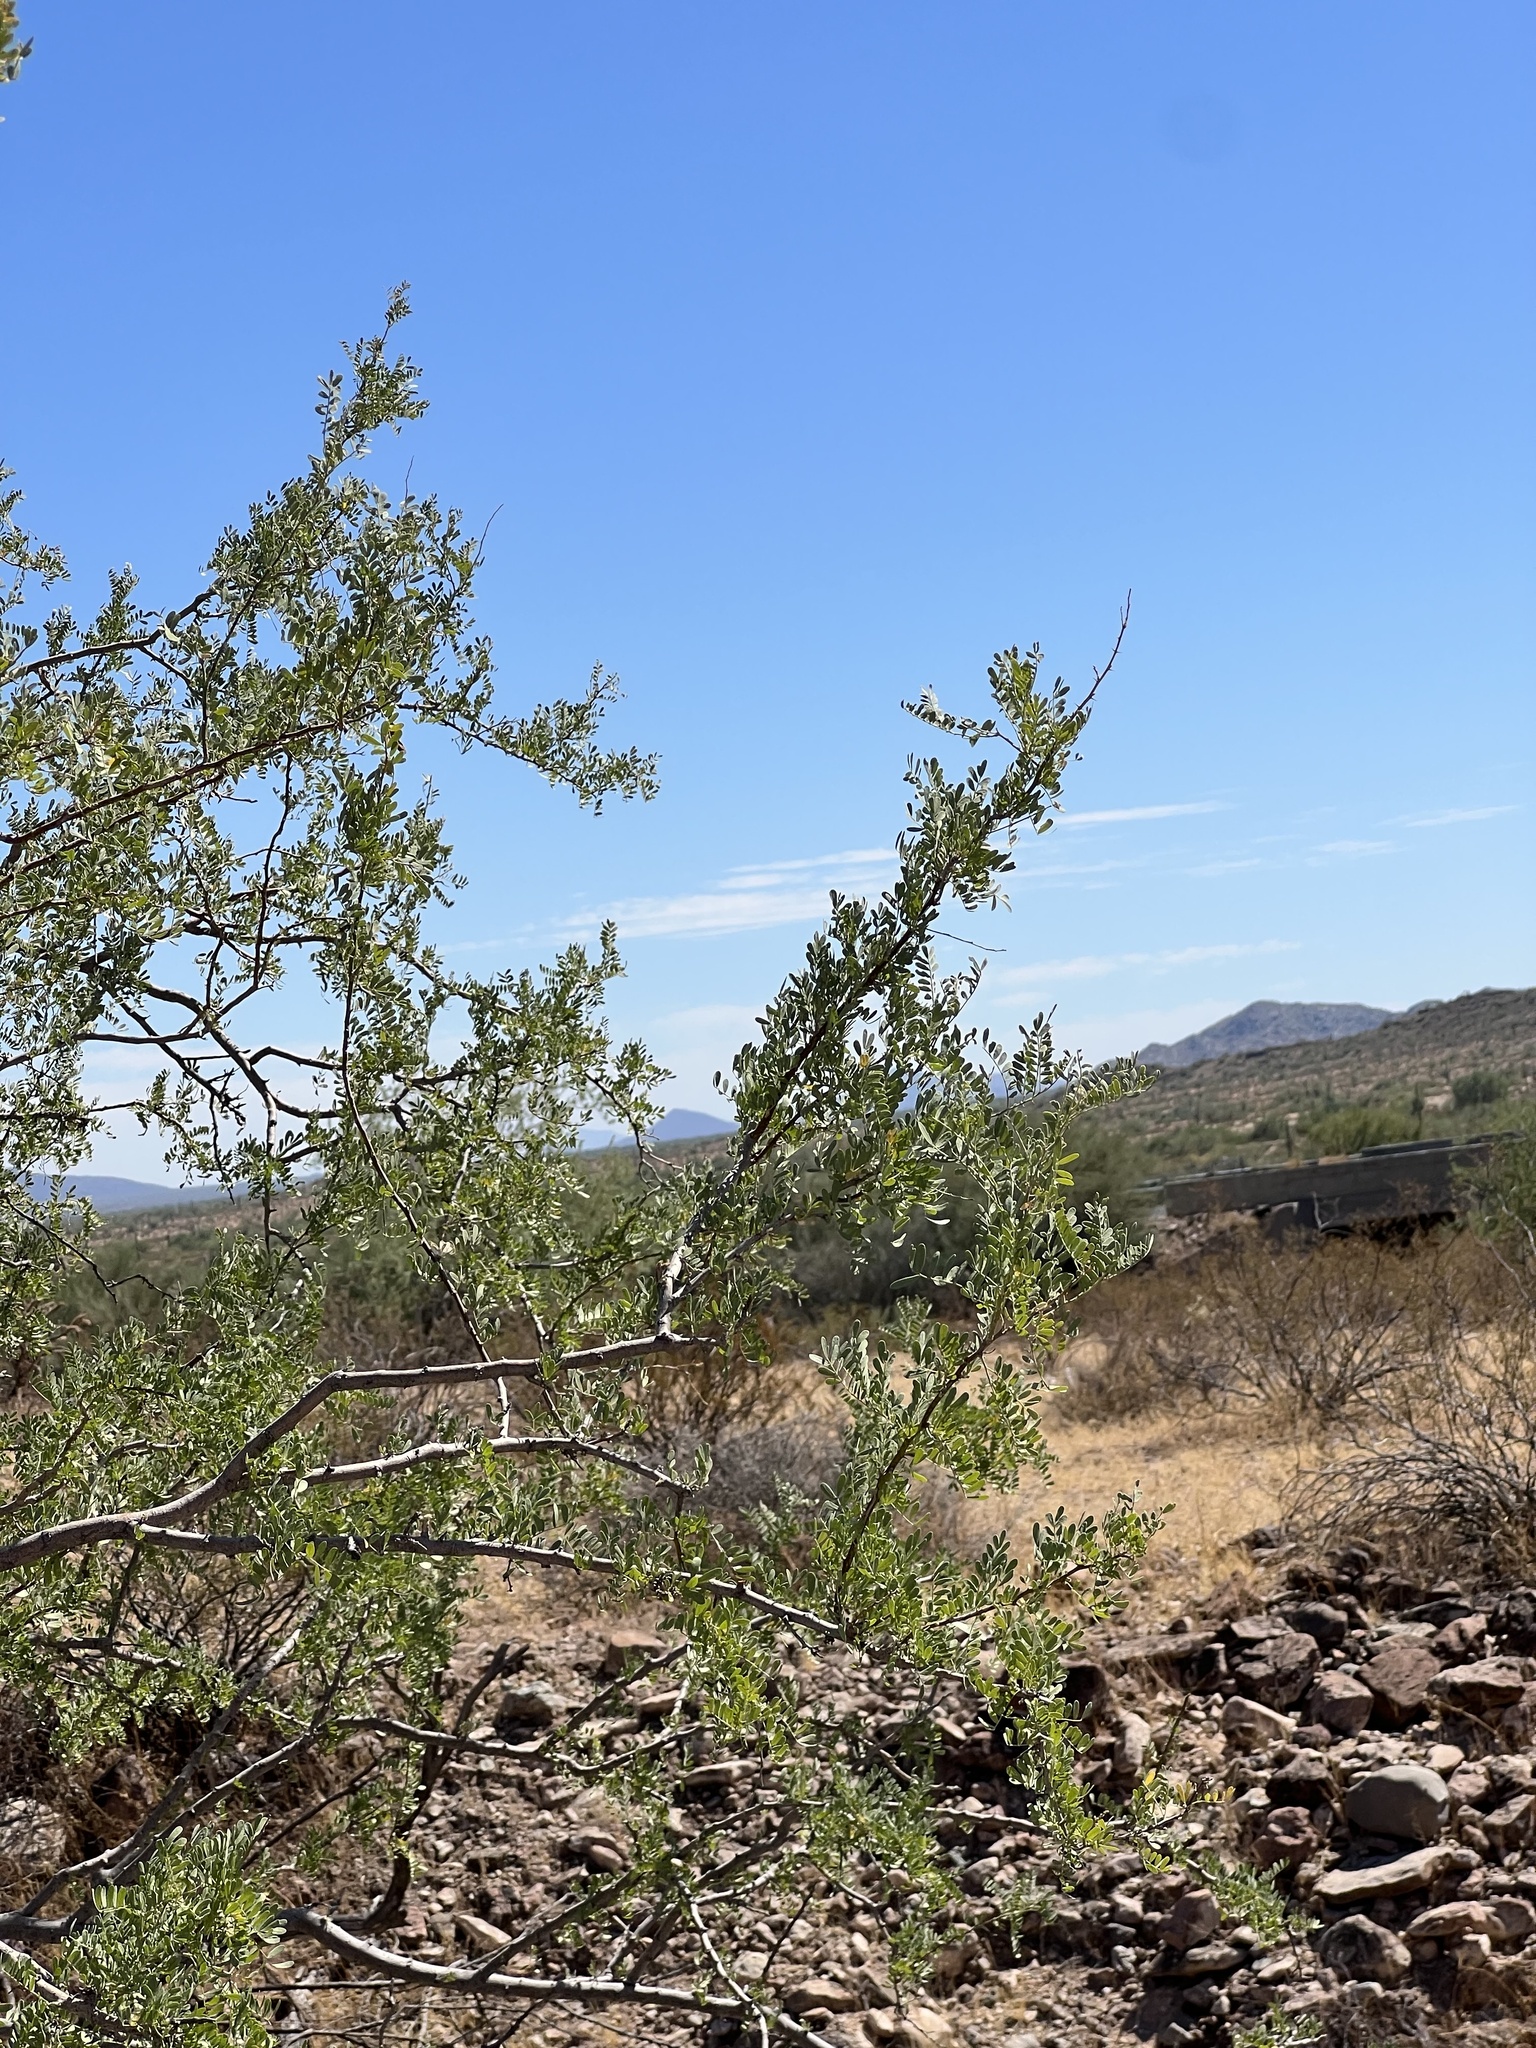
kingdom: Plantae
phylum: Tracheophyta
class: Magnoliopsida
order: Fabales
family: Fabaceae
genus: Olneya
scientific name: Olneya tesota
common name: Desert ironwood
